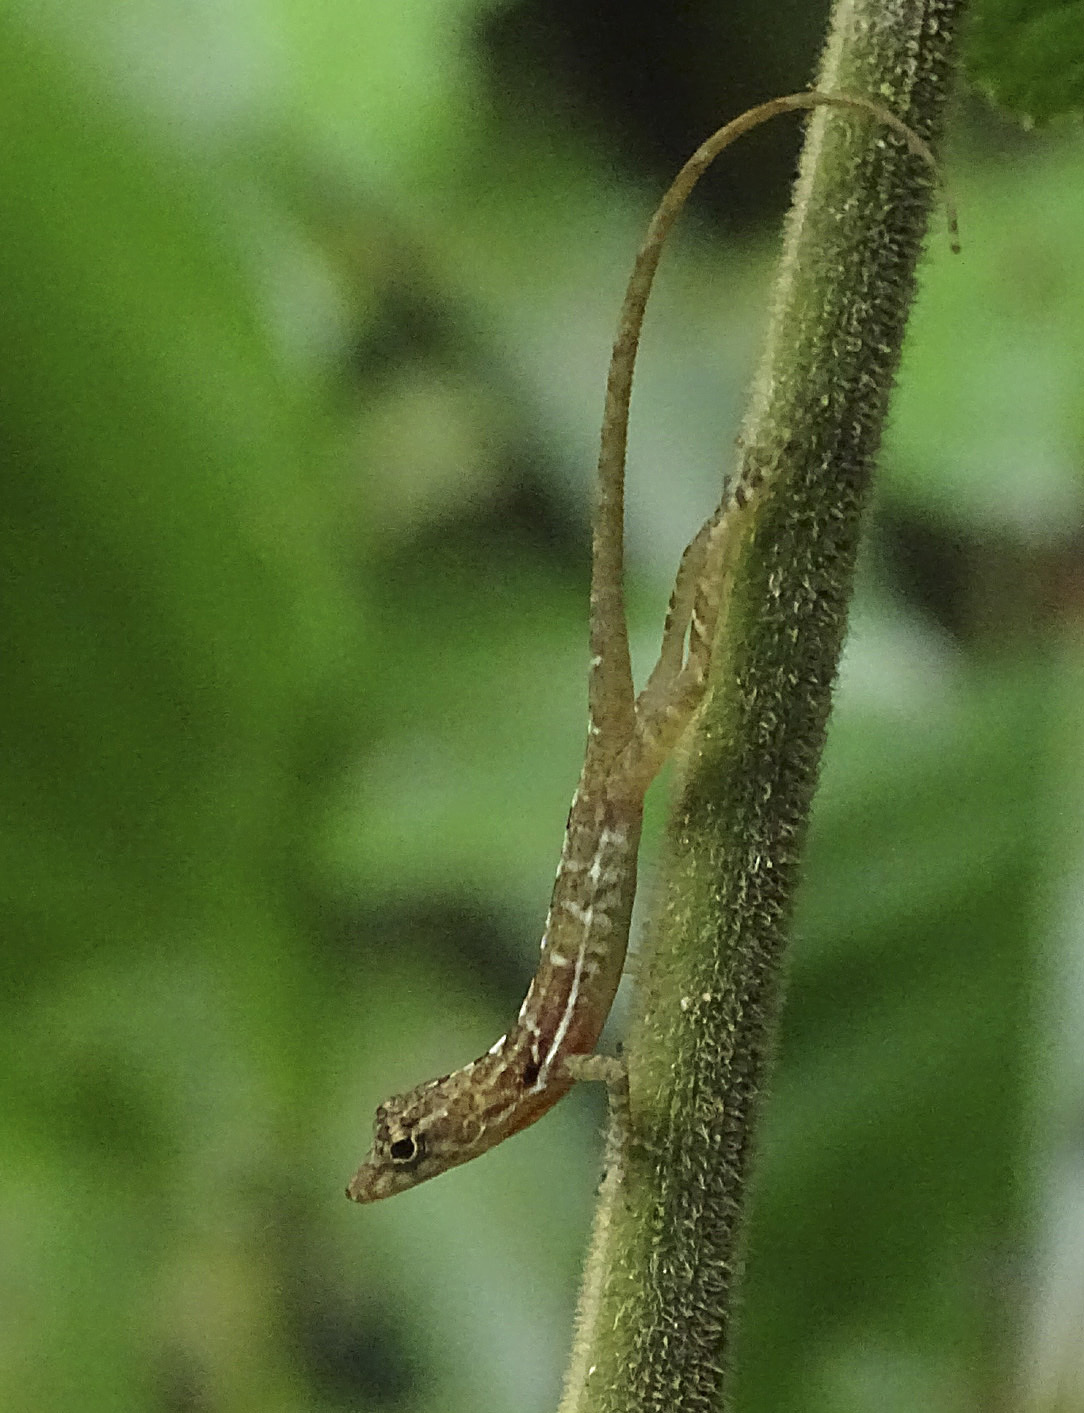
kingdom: Animalia
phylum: Chordata
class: Squamata
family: Dactyloidae
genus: Anolis
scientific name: Anolis polylepis
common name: Many-scaled anole
